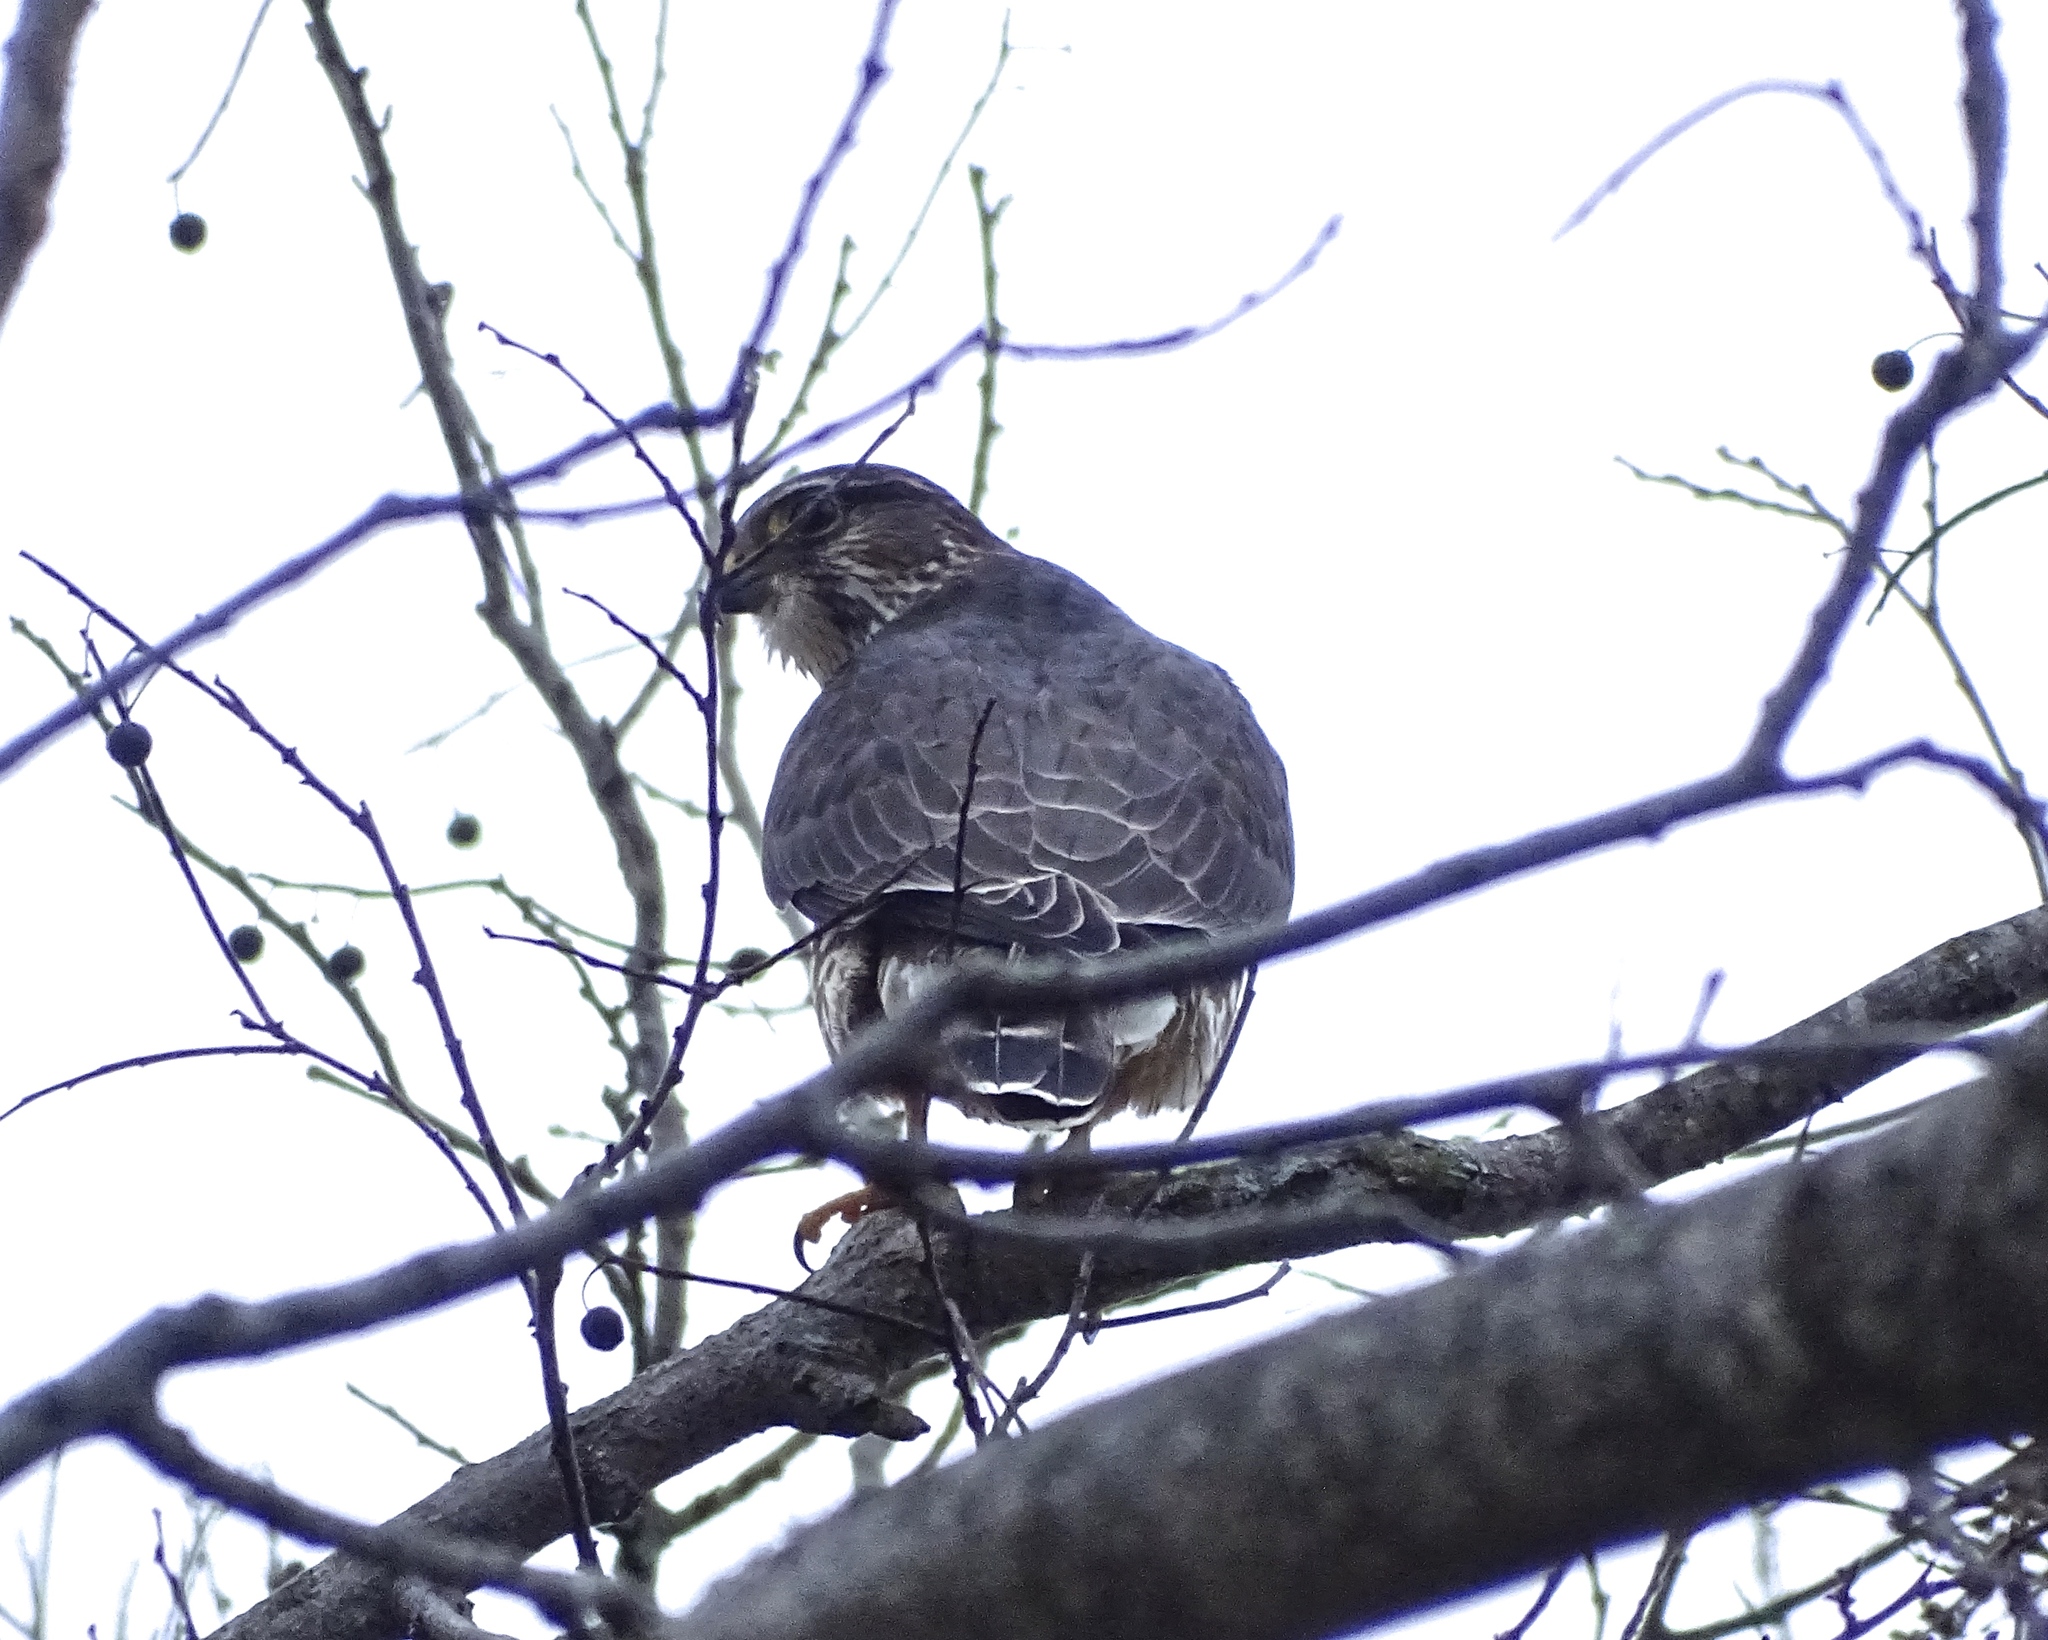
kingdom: Animalia
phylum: Chordata
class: Aves
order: Falconiformes
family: Falconidae
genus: Falco
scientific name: Falco columbarius
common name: Merlin
